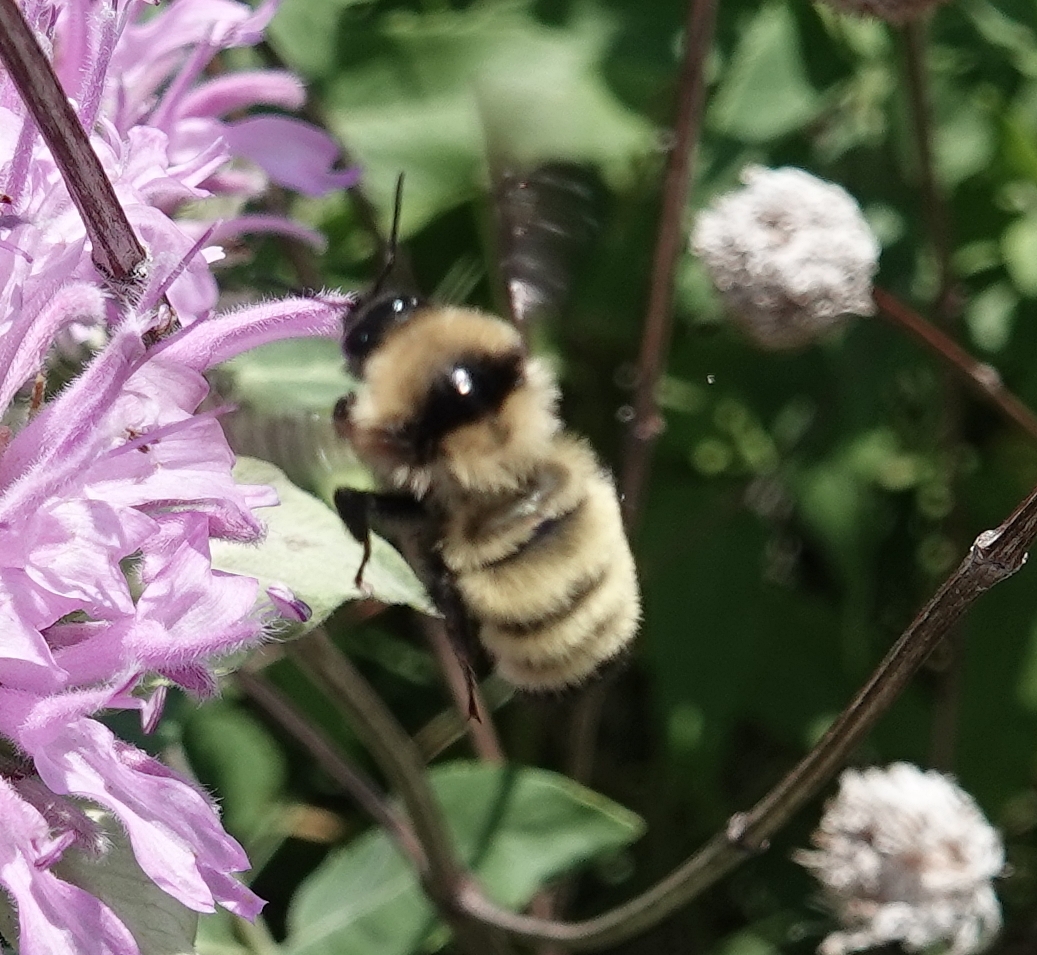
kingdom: Animalia
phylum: Arthropoda
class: Insecta
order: Hymenoptera
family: Apidae
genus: Bombus
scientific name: Bombus fervidus
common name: Yellow bumble bee
